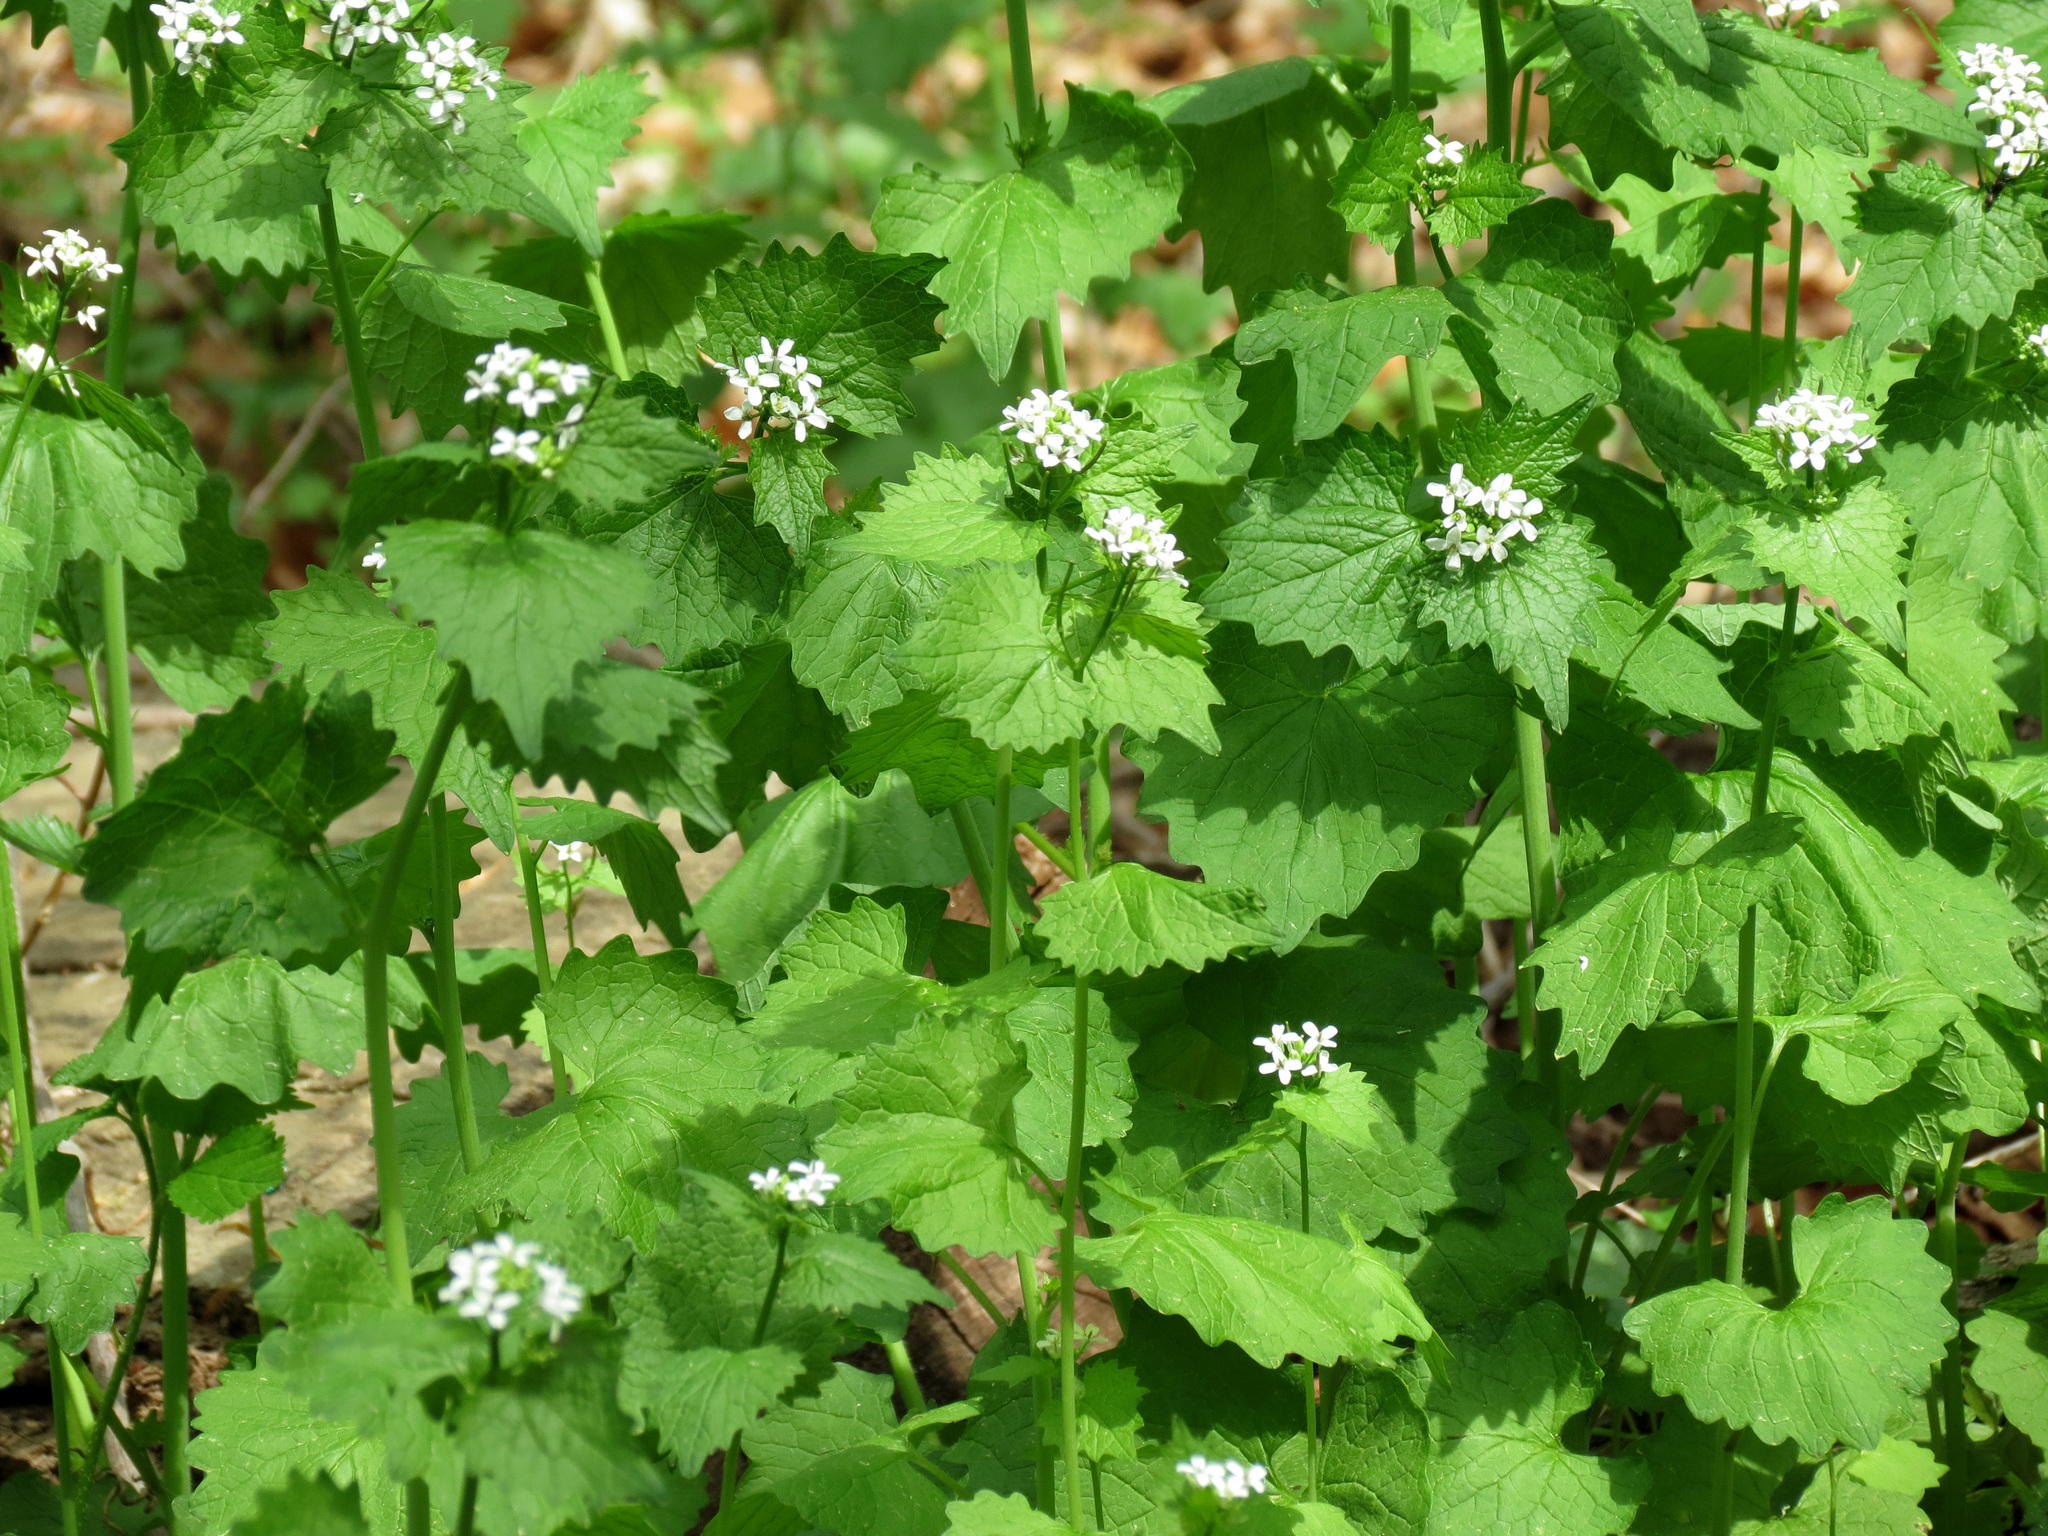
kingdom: Plantae
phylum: Tracheophyta
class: Magnoliopsida
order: Brassicales
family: Brassicaceae
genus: Alliaria
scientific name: Alliaria petiolata
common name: Garlic mustard
